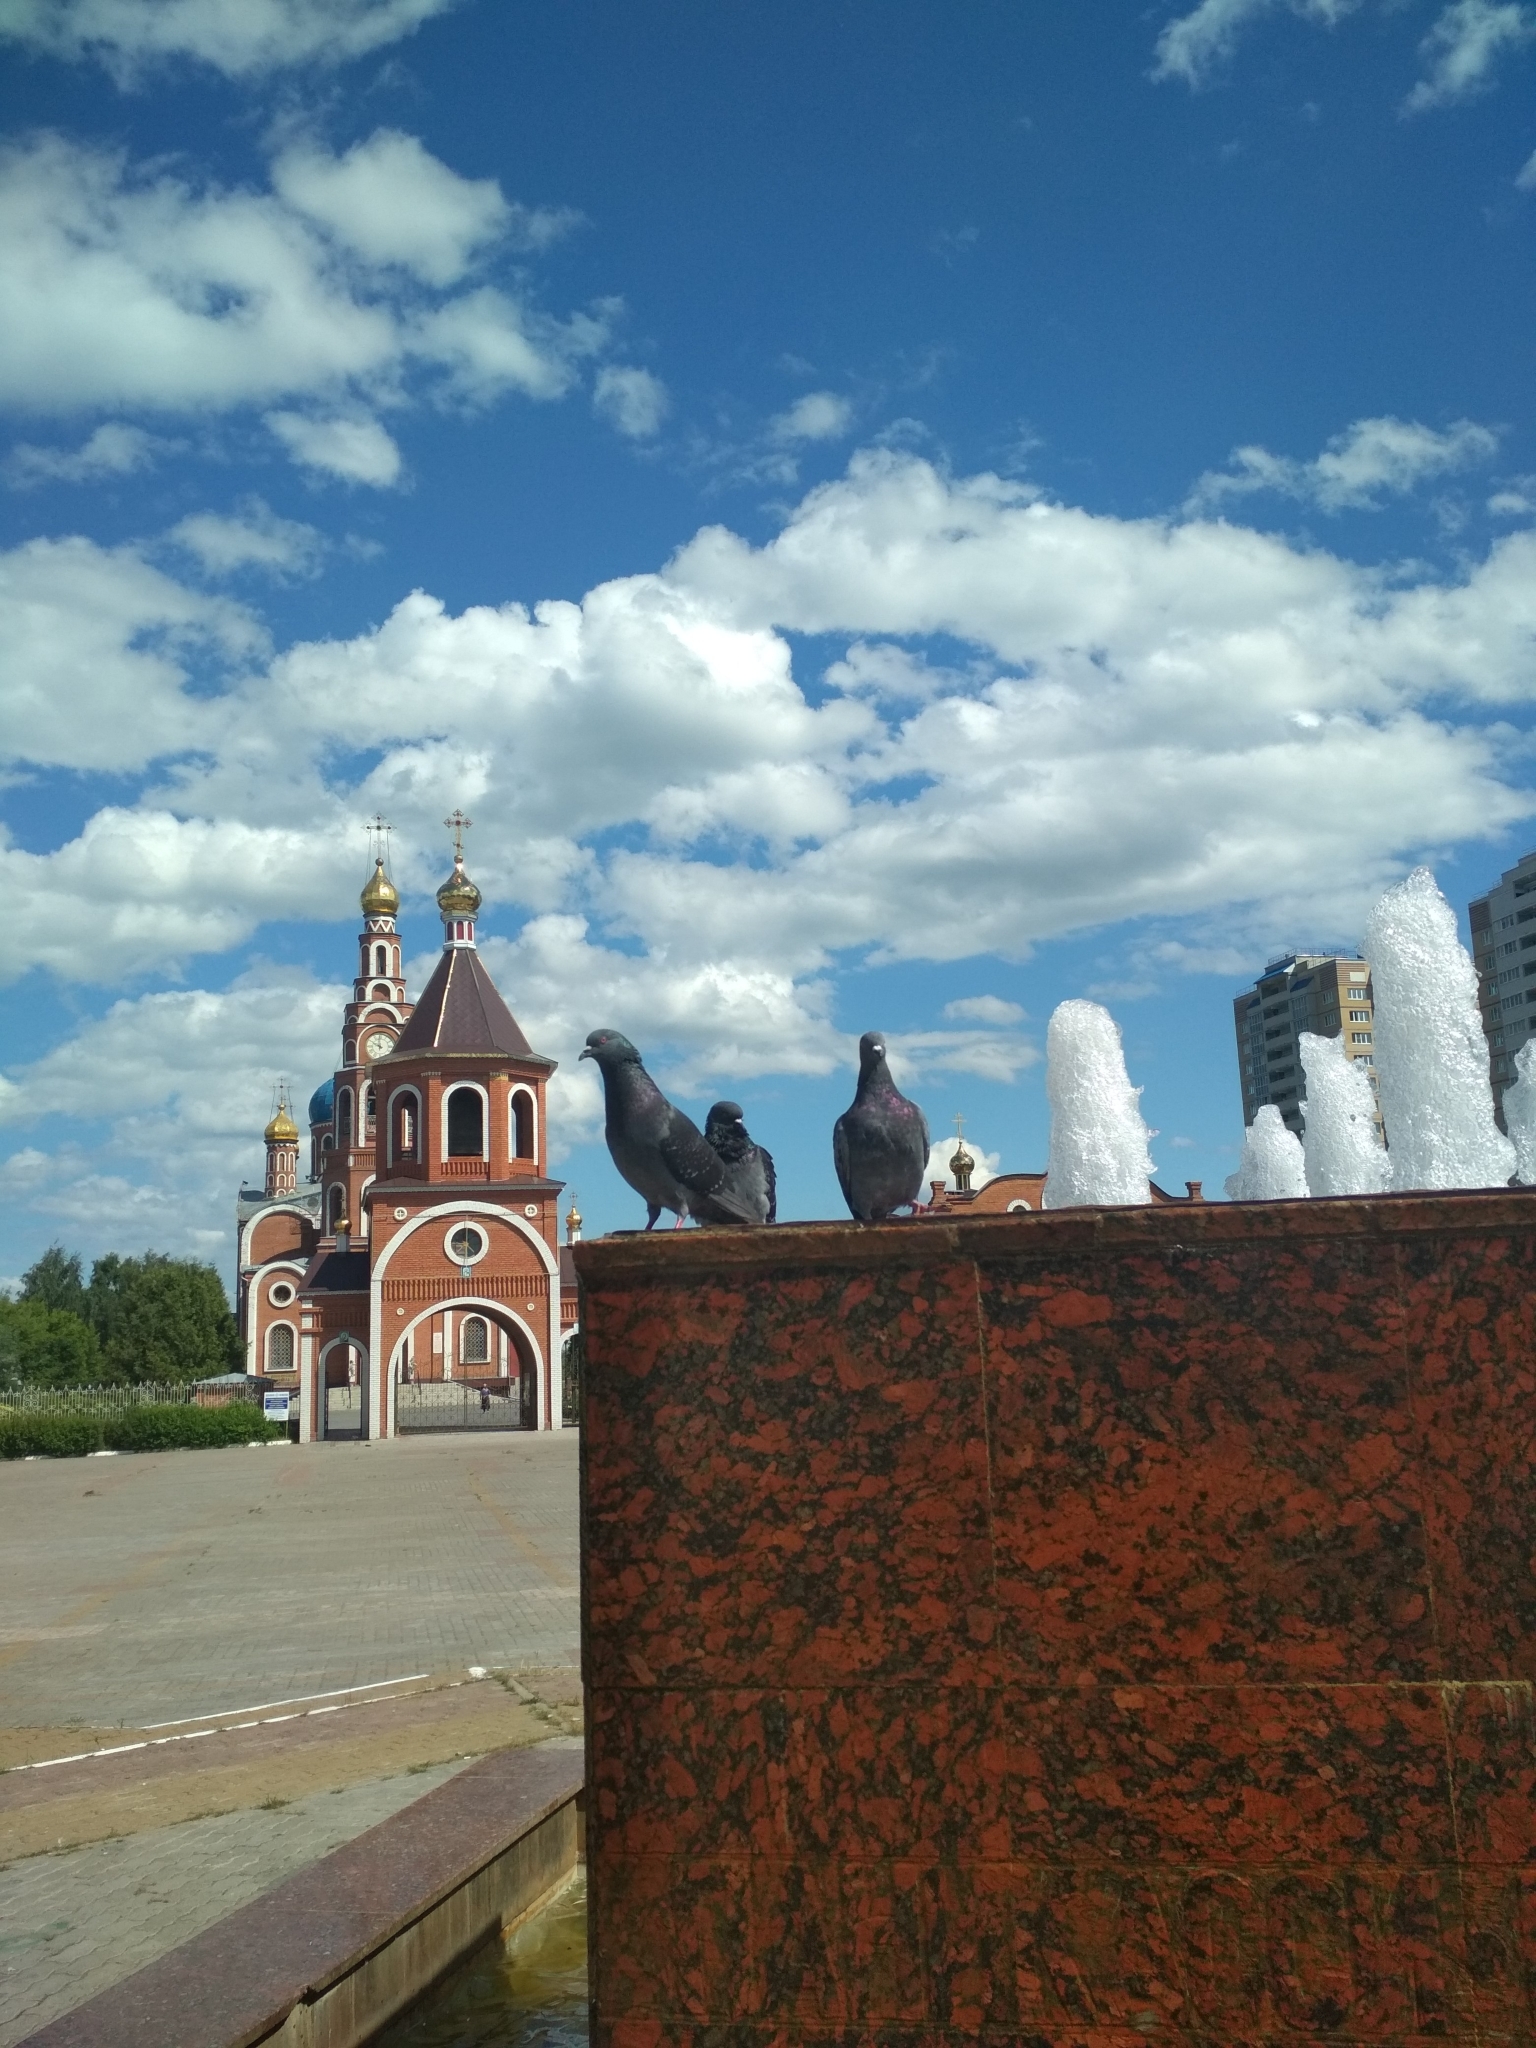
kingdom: Animalia
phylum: Chordata
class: Aves
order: Columbiformes
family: Columbidae
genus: Columba
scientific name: Columba livia
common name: Rock pigeon
